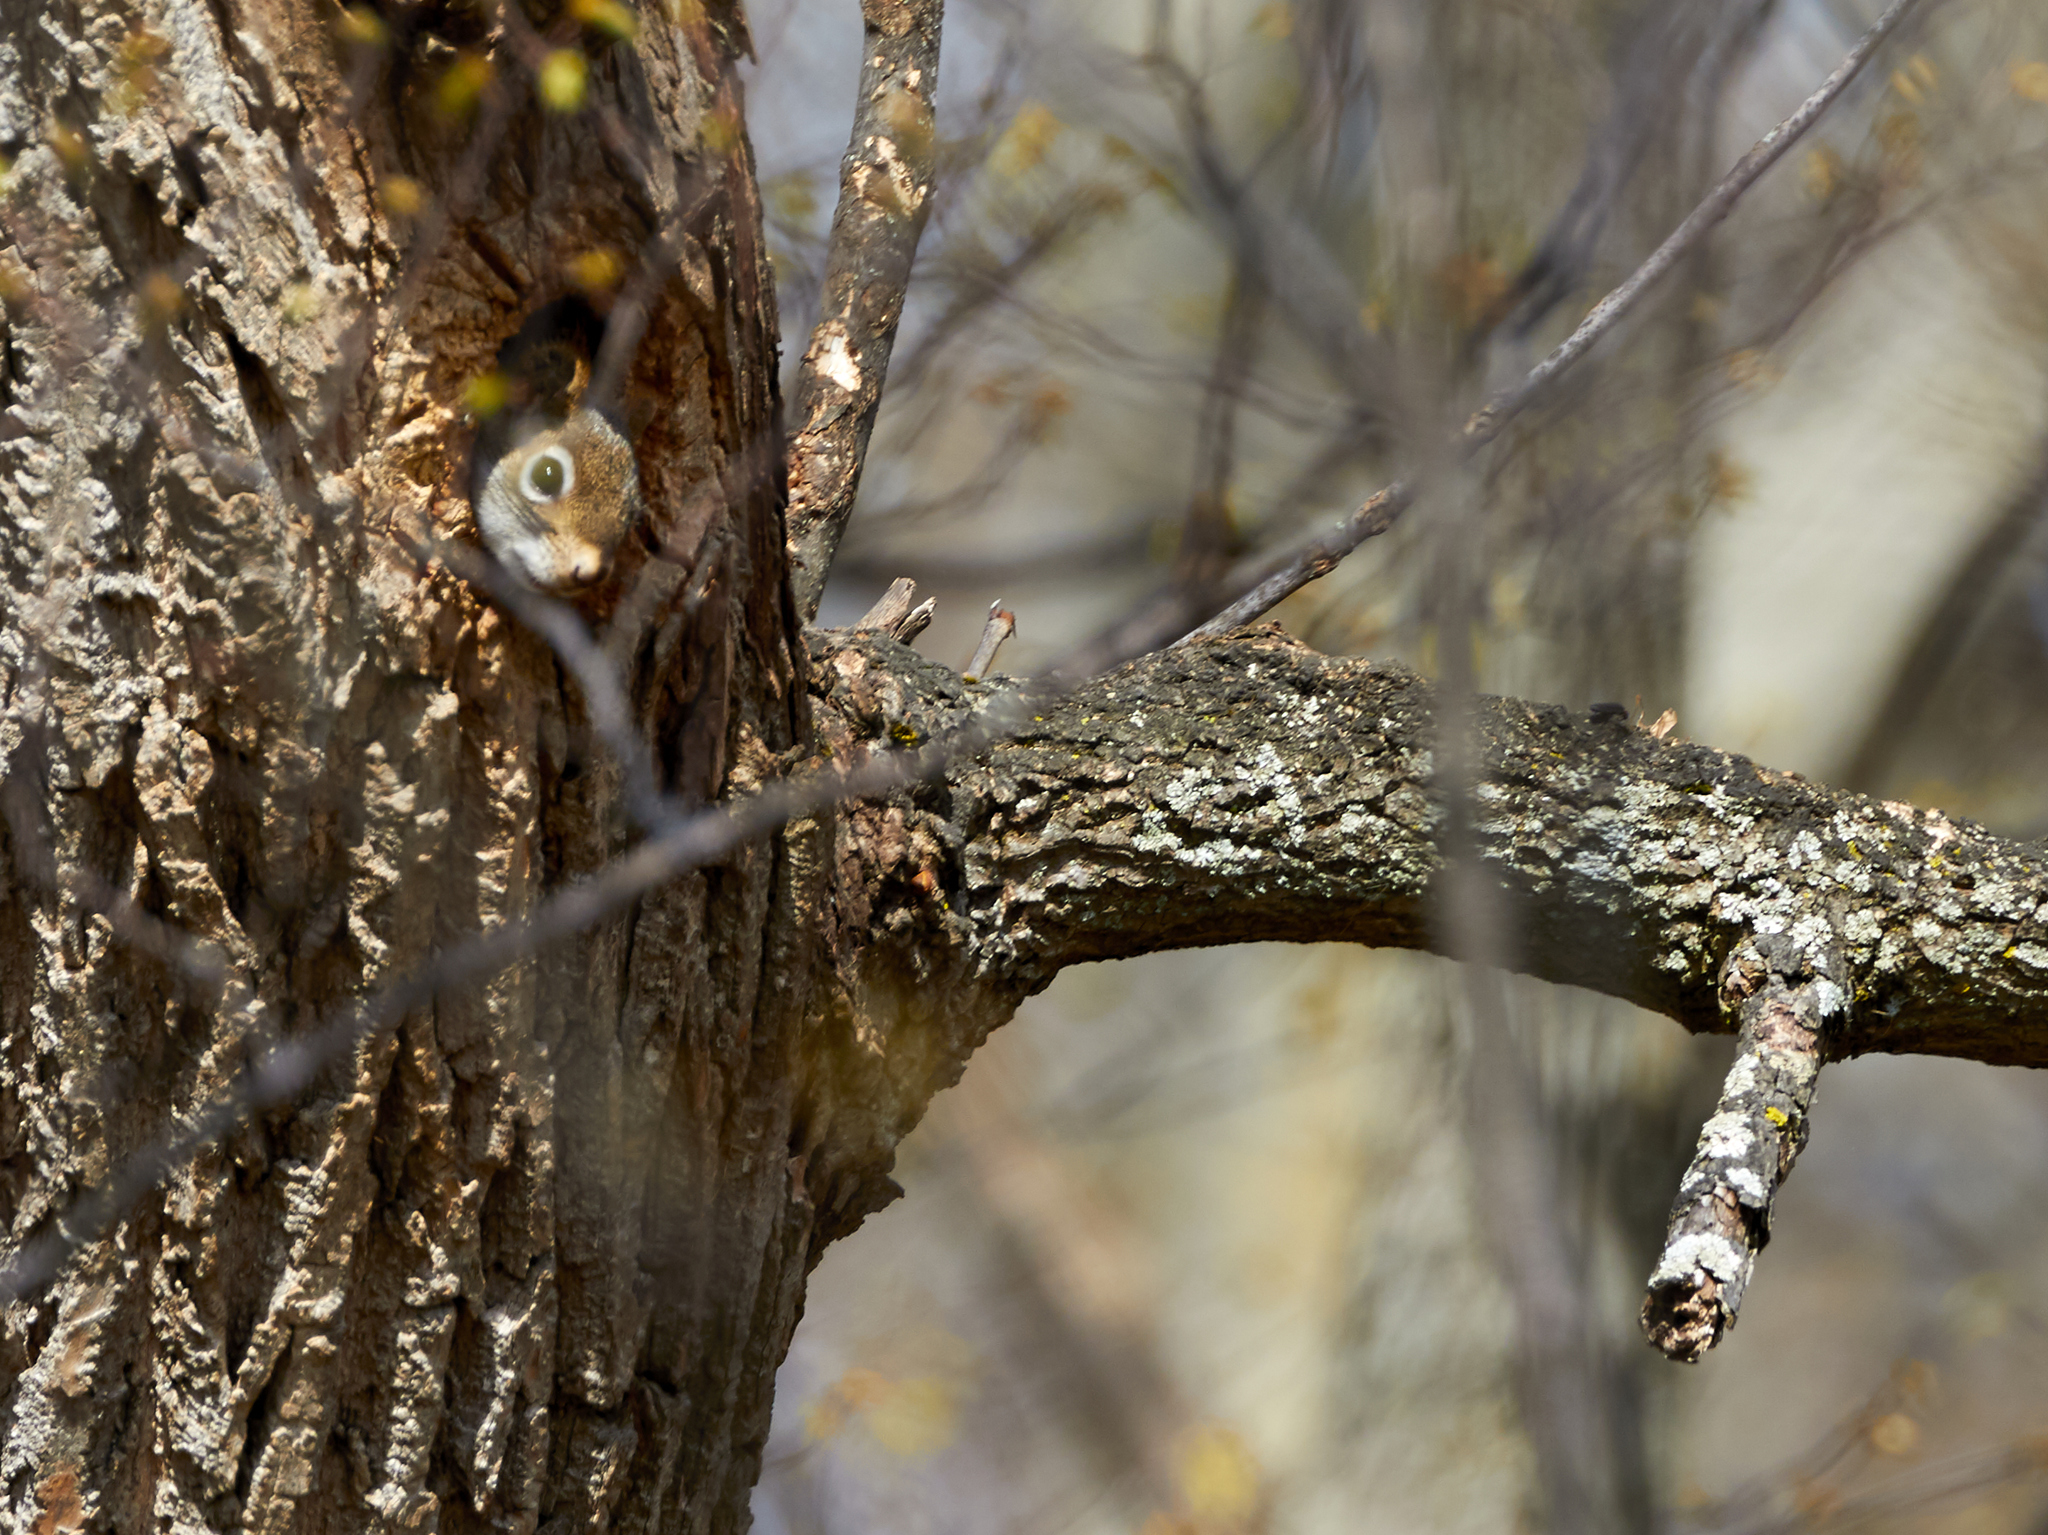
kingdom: Animalia
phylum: Chordata
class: Mammalia
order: Rodentia
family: Sciuridae
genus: Tamiasciurus
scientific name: Tamiasciurus hudsonicus
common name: Red squirrel
